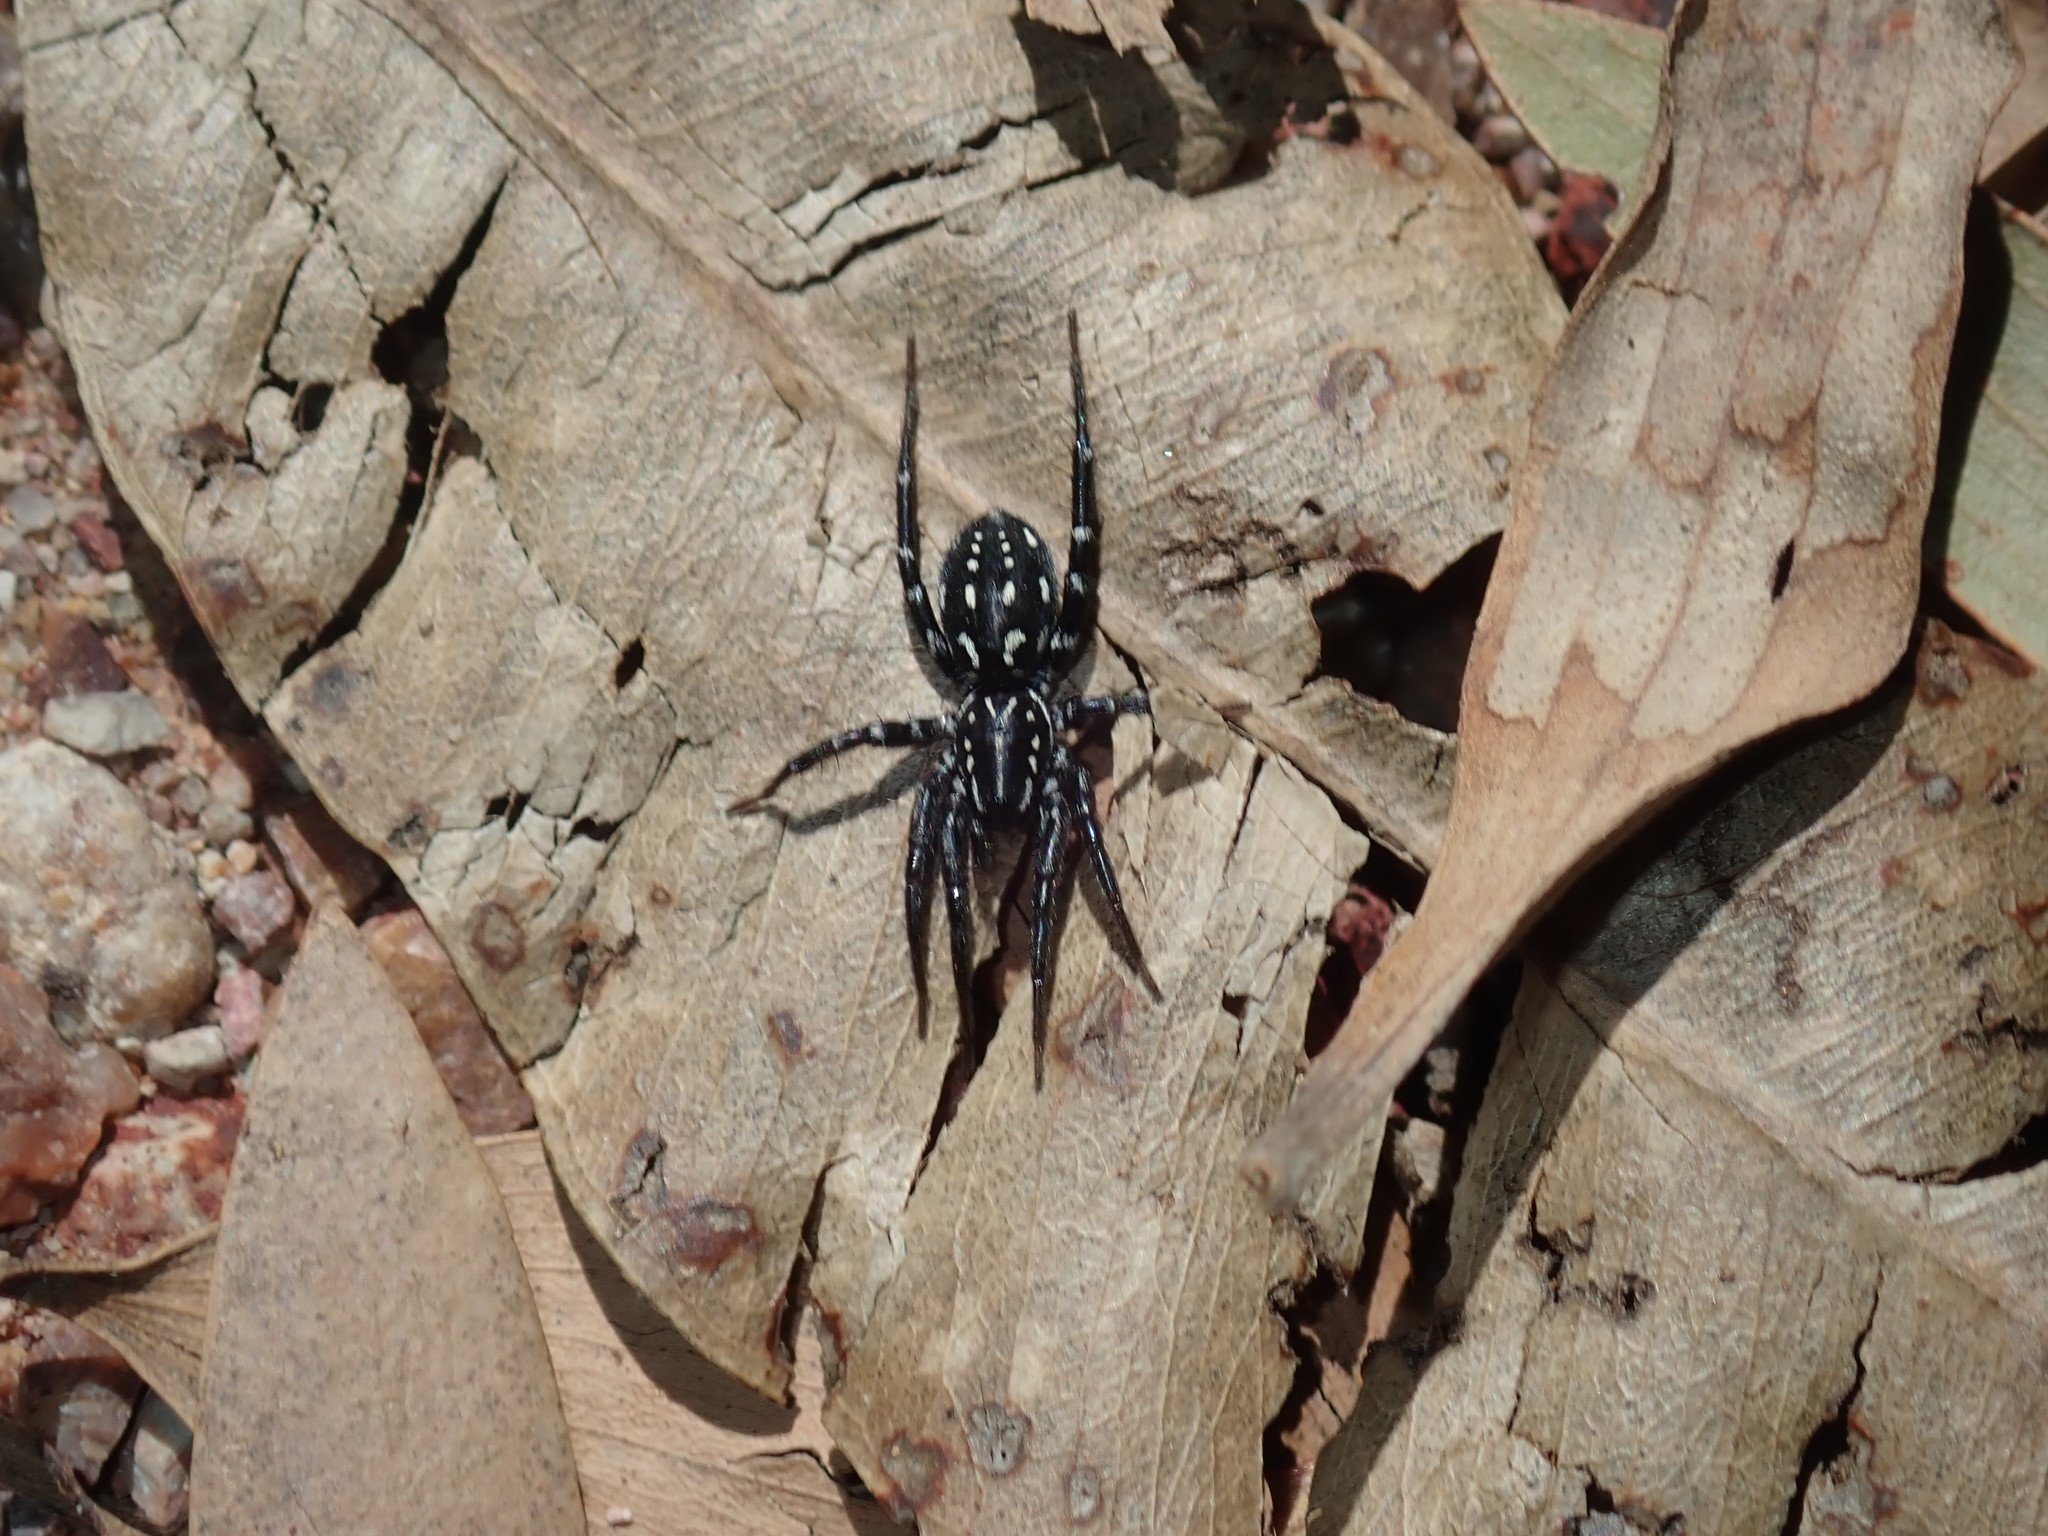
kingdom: Animalia
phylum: Arthropoda
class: Arachnida
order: Araneae
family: Corinnidae
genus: Nyssus
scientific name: Nyssus albopunctatus
